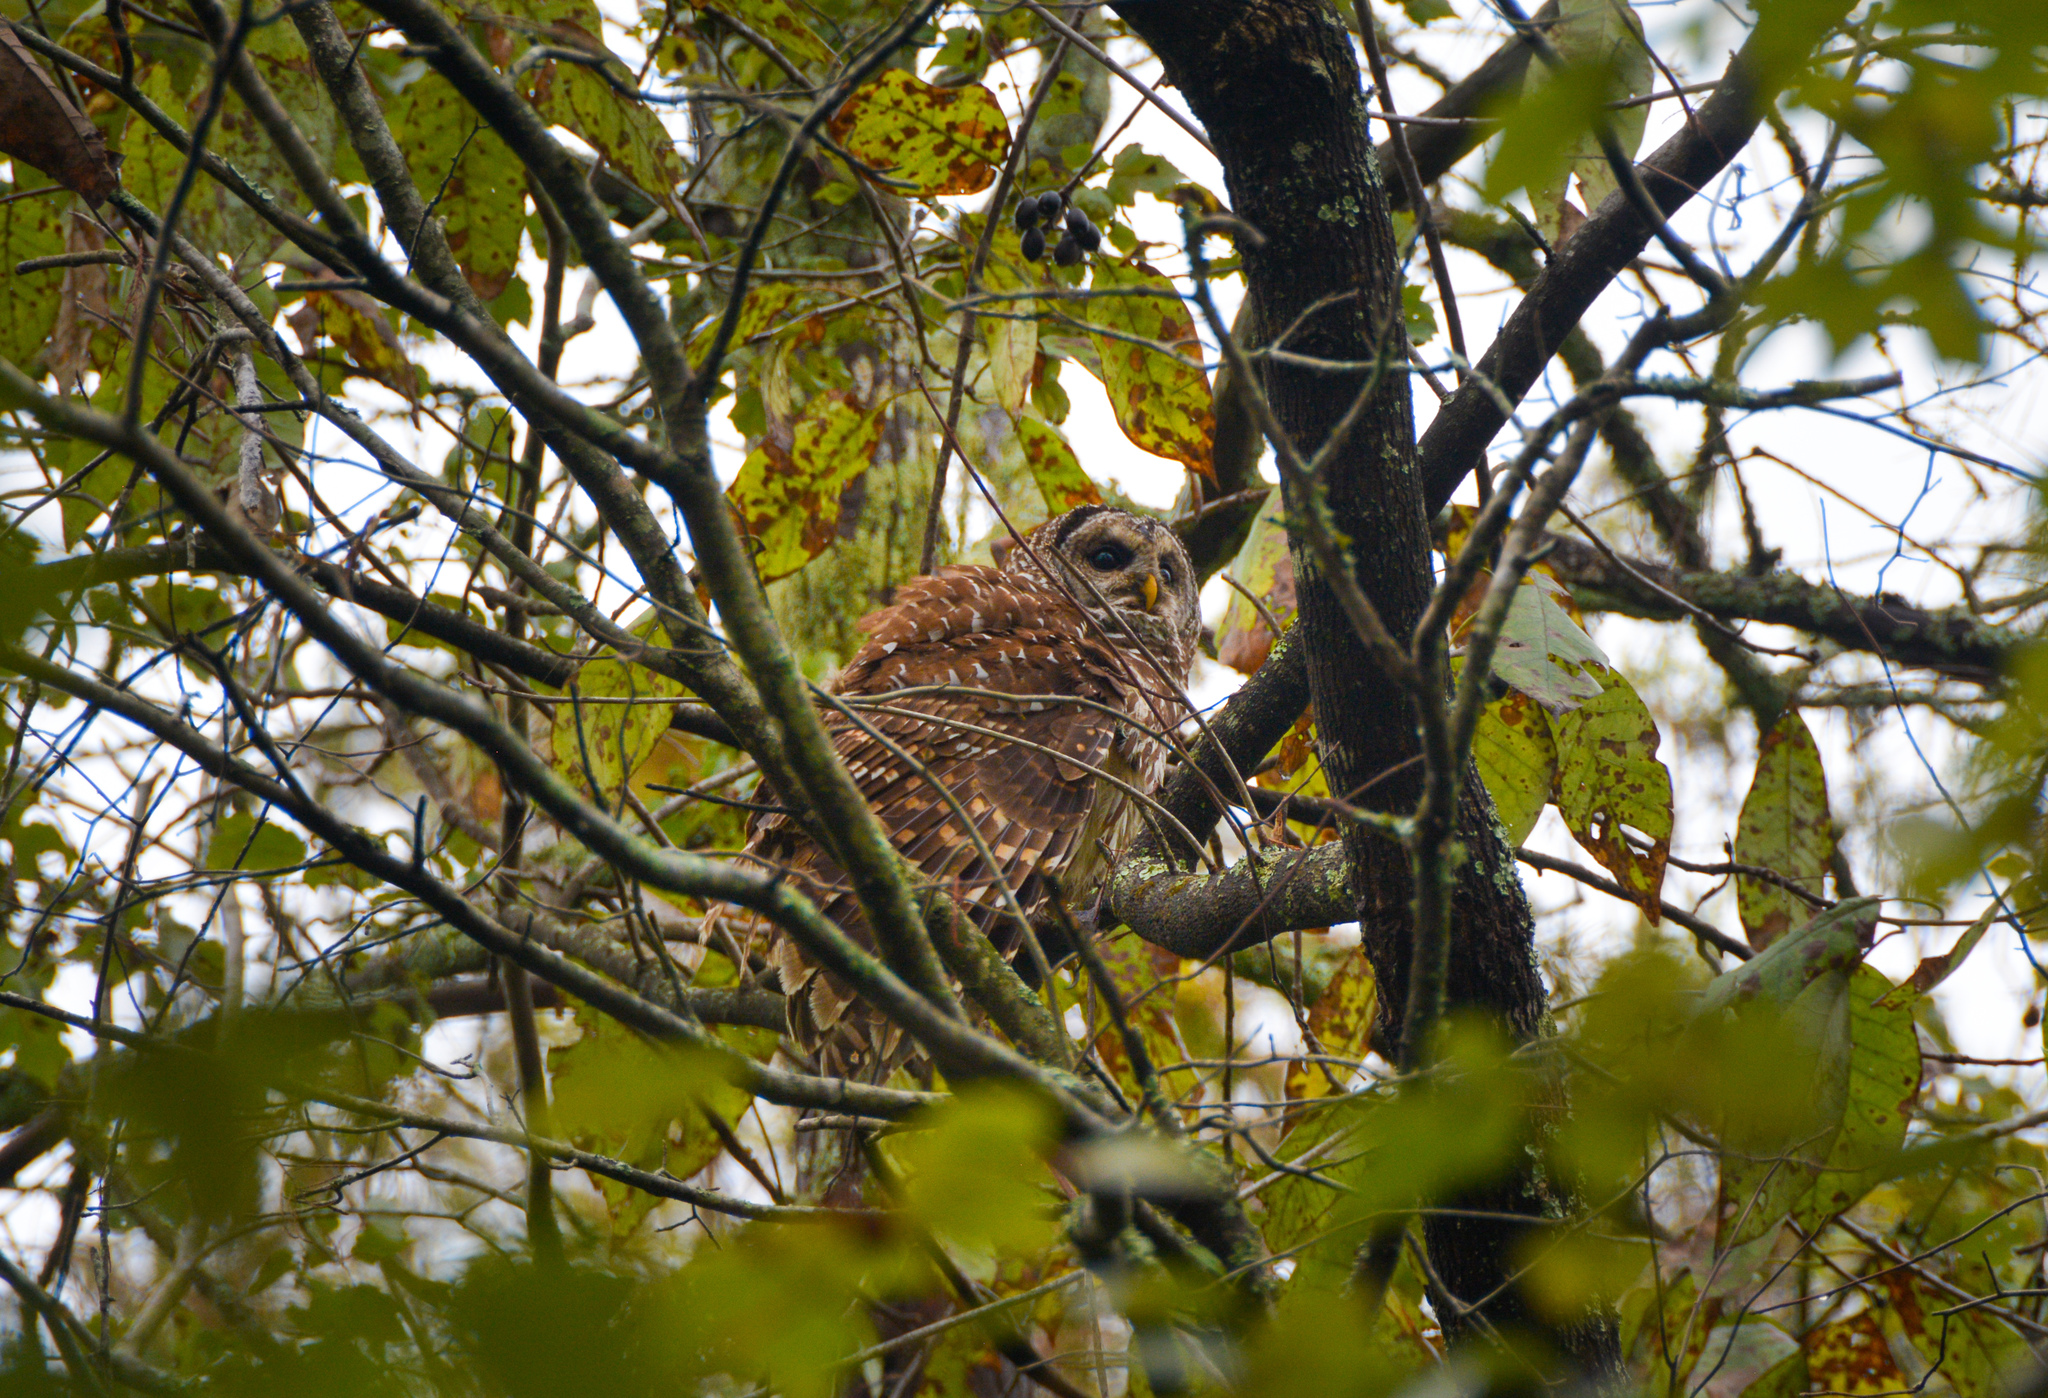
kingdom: Animalia
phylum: Chordata
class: Aves
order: Strigiformes
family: Strigidae
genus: Strix
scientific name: Strix varia
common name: Barred owl
